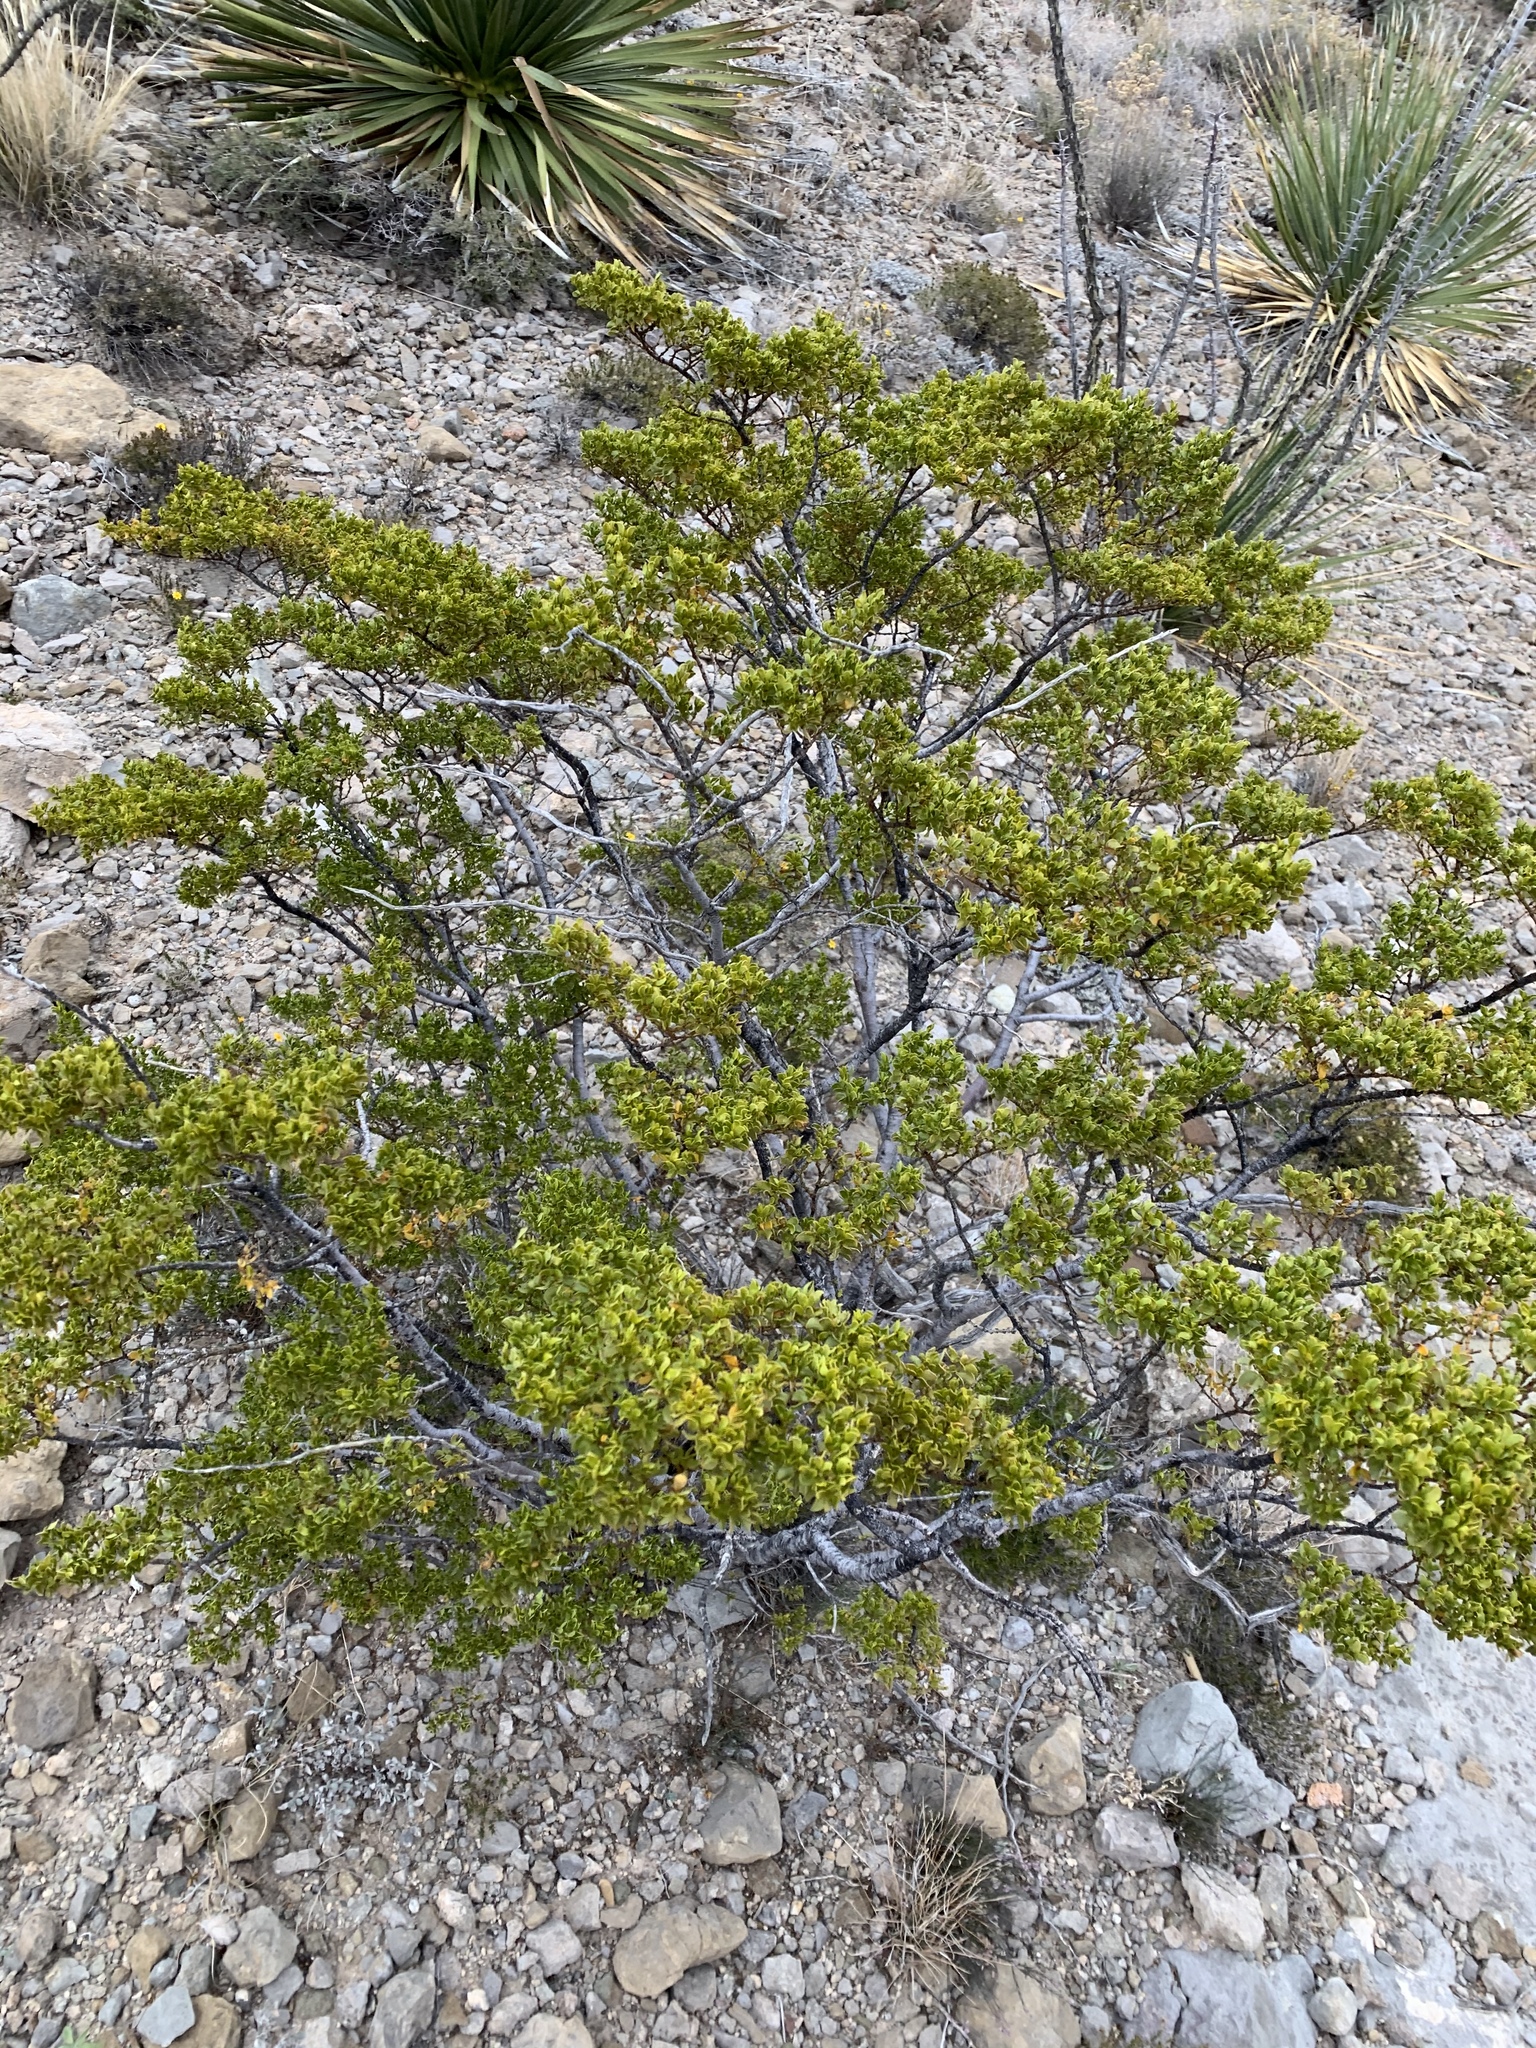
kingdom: Plantae
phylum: Tracheophyta
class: Magnoliopsida
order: Zygophyllales
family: Zygophyllaceae
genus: Larrea
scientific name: Larrea tridentata
